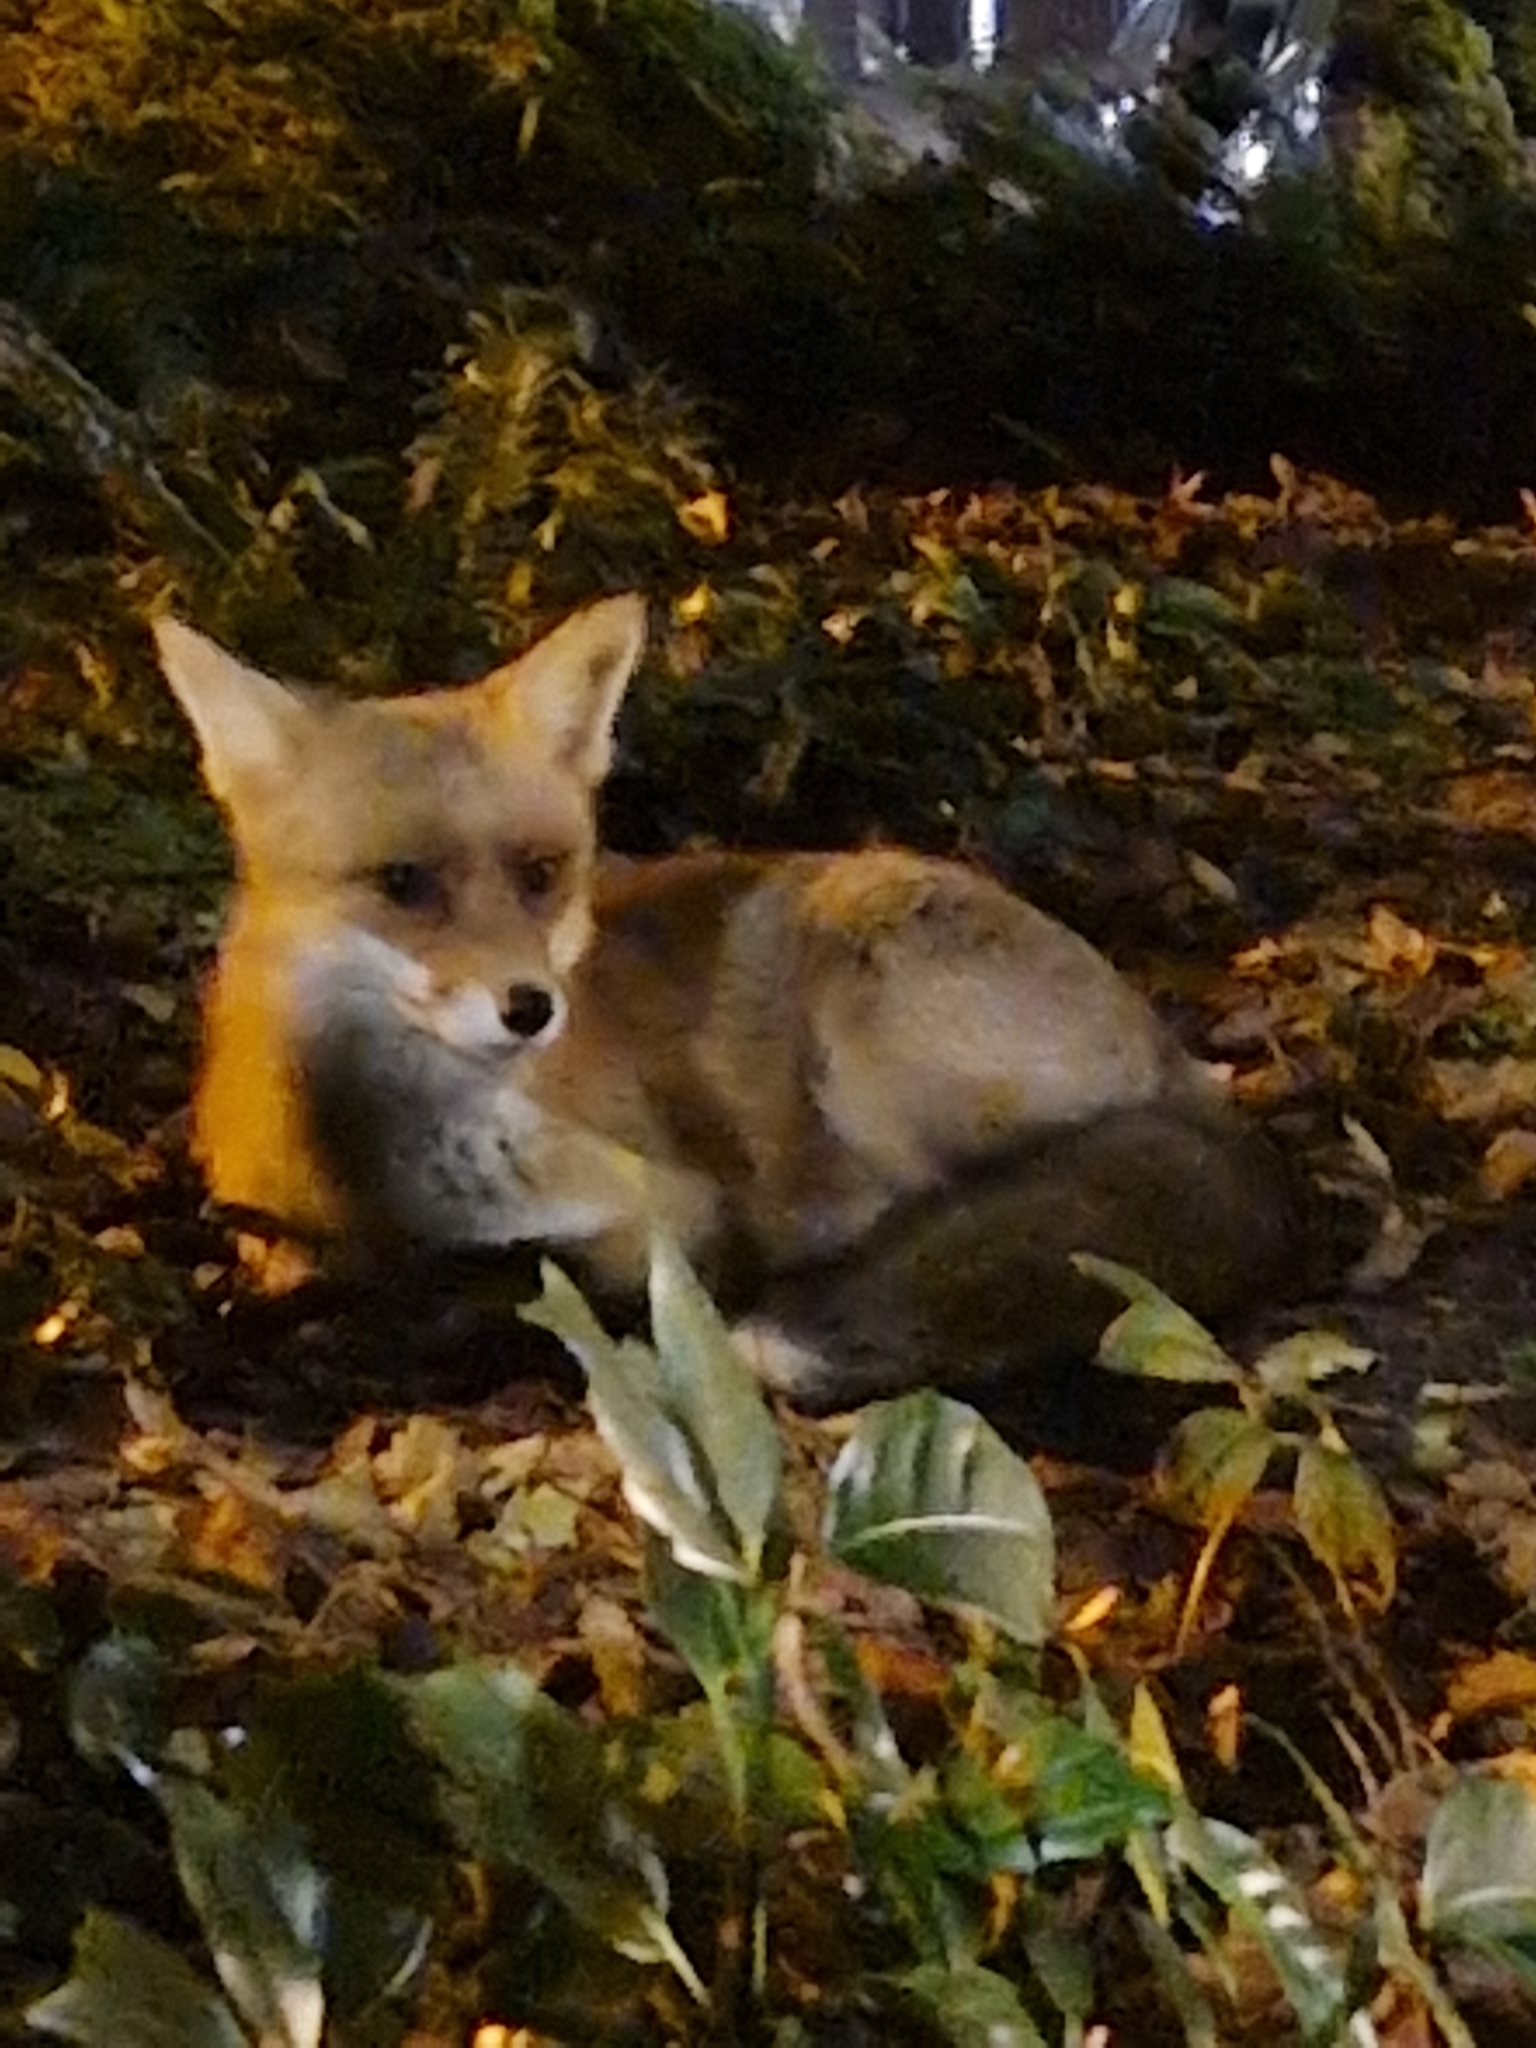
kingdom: Animalia
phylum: Chordata
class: Mammalia
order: Carnivora
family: Canidae
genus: Vulpes
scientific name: Vulpes vulpes
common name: Red fox
